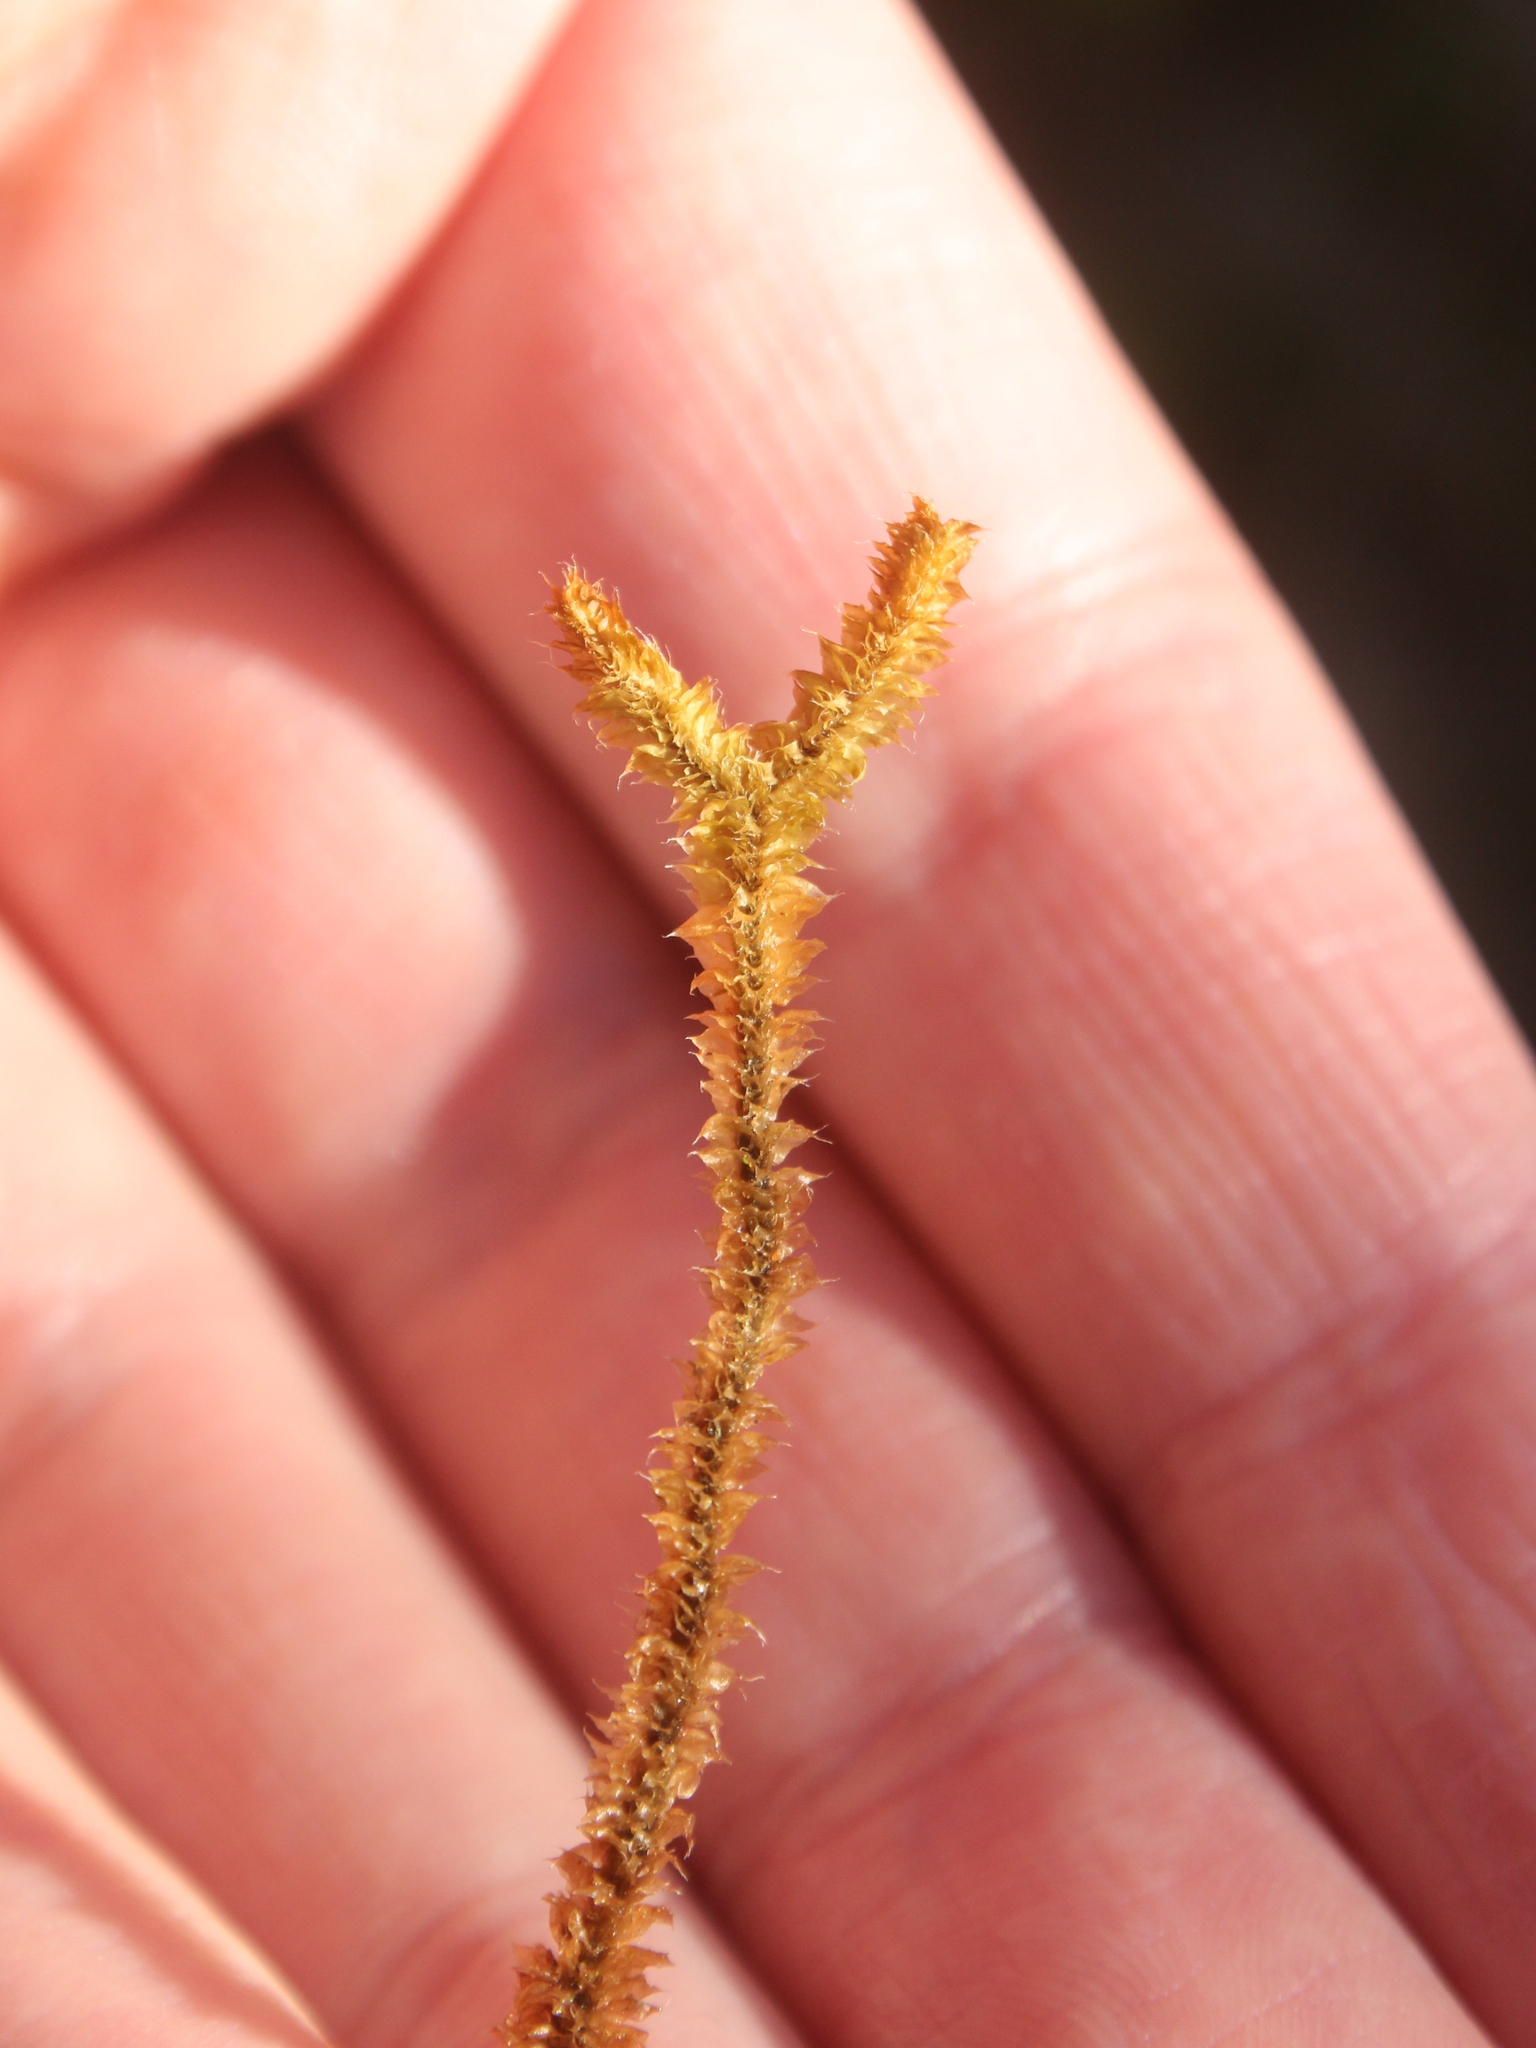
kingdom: Plantae
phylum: Marchantiophyta
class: Jungermanniopsida
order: Jungermanniales
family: Anastrophyllaceae
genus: Chandonanthus
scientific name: Chandonanthus squarrosus
